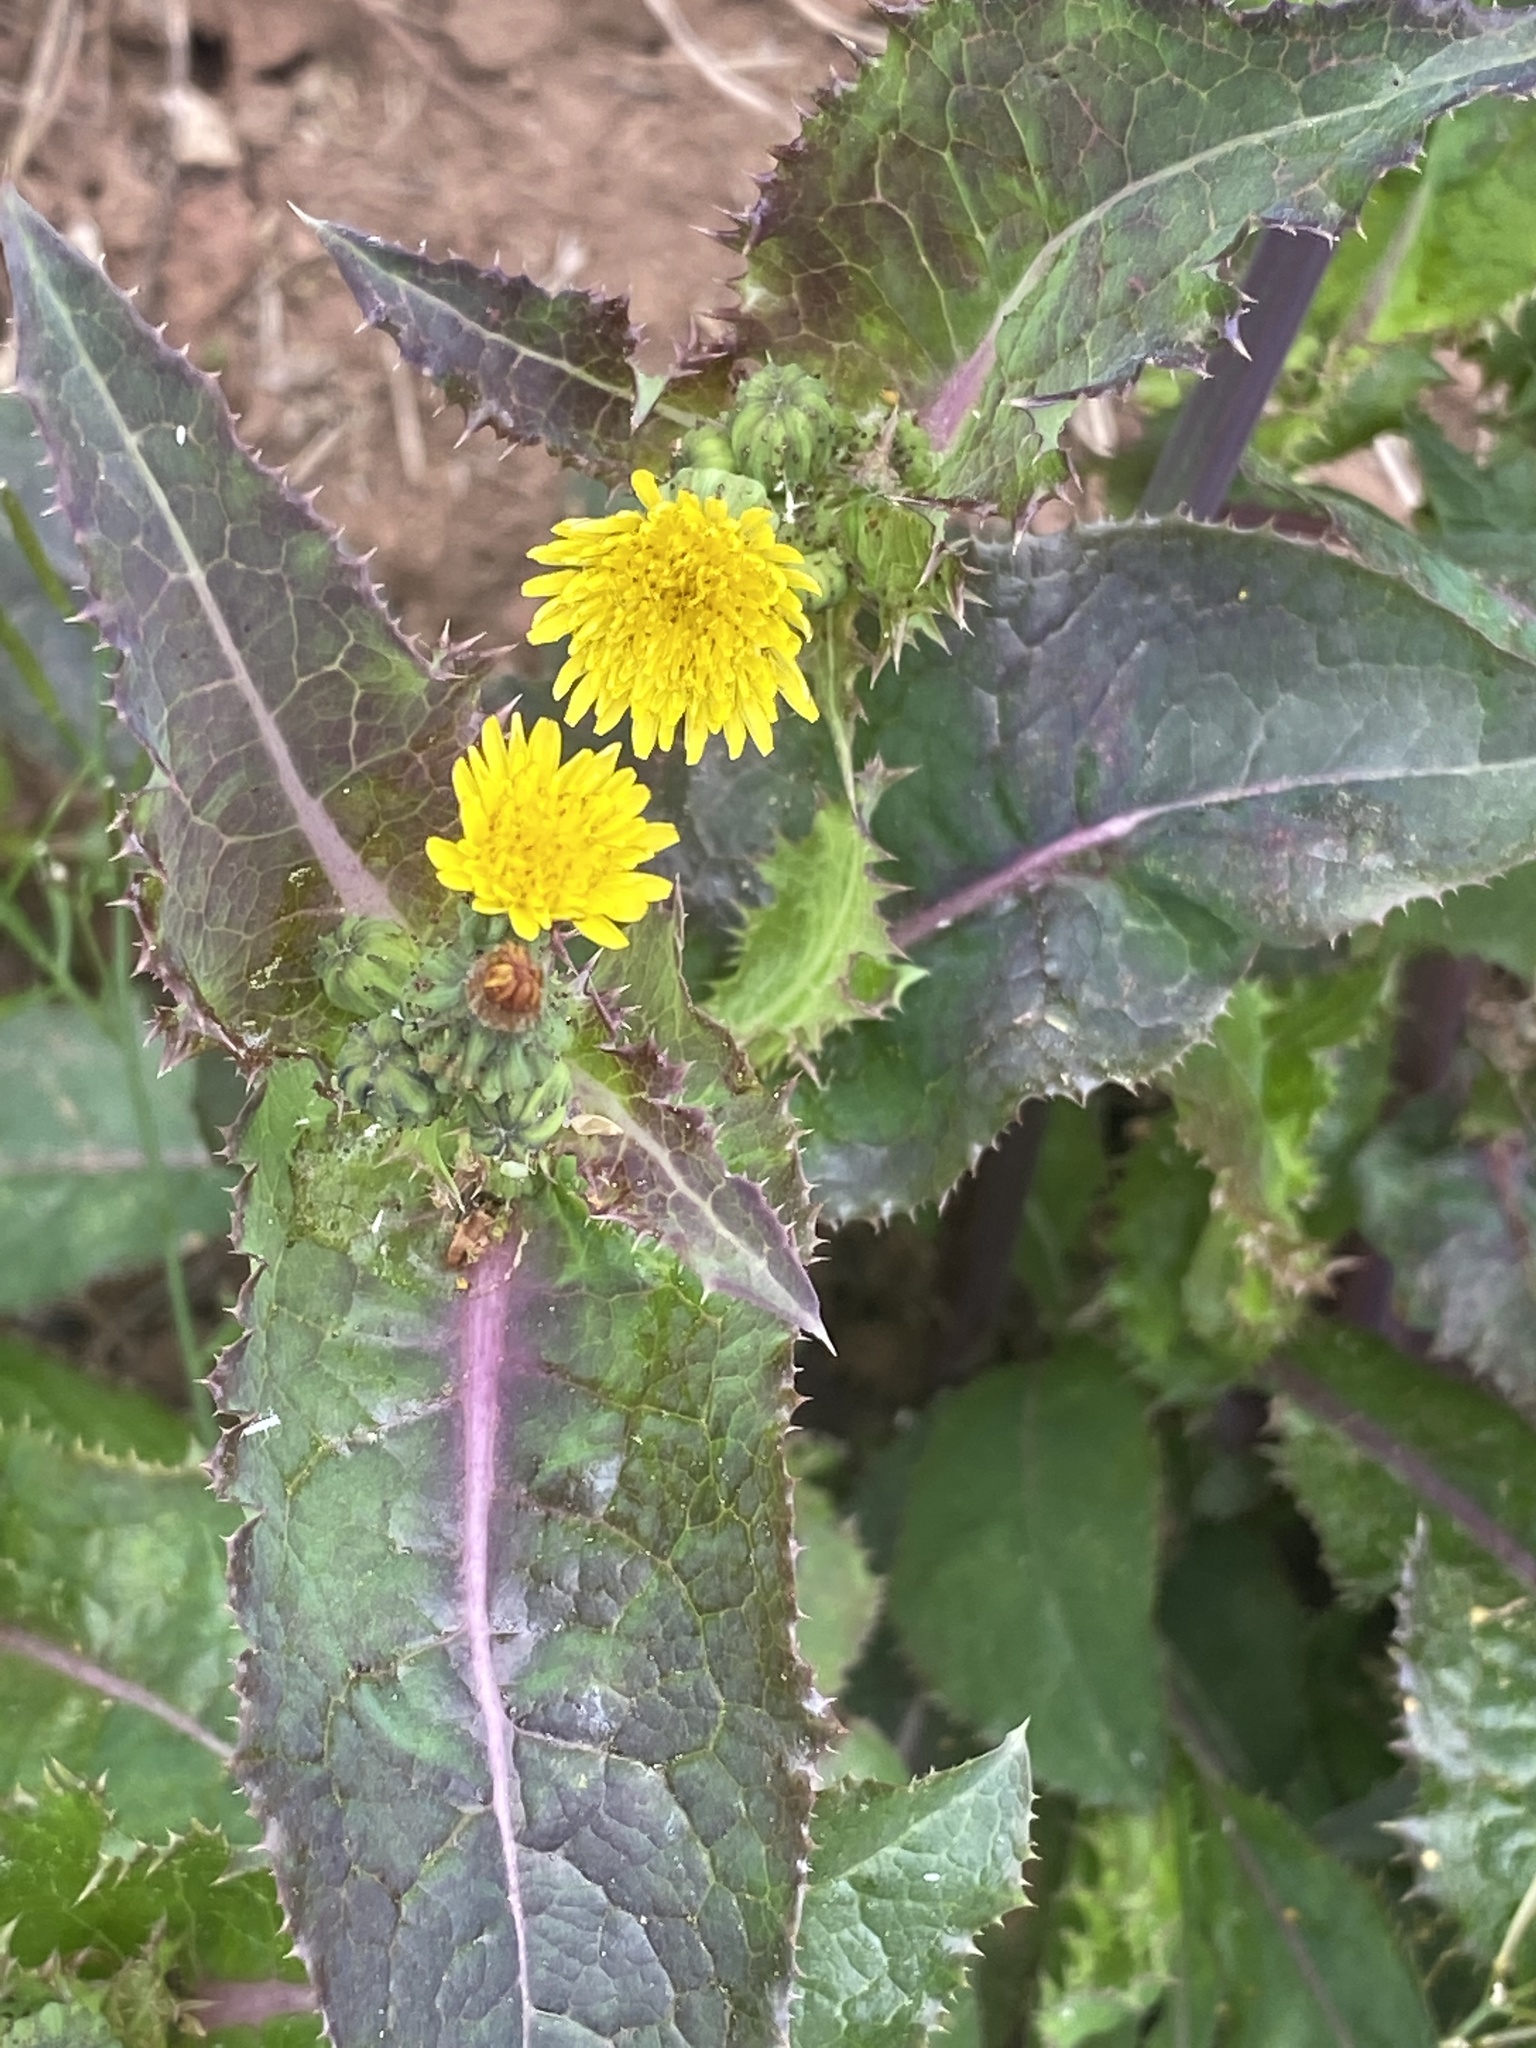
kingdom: Plantae
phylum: Tracheophyta
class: Magnoliopsida
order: Asterales
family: Asteraceae
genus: Sonchus
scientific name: Sonchus asper
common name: Prickly sow-thistle
